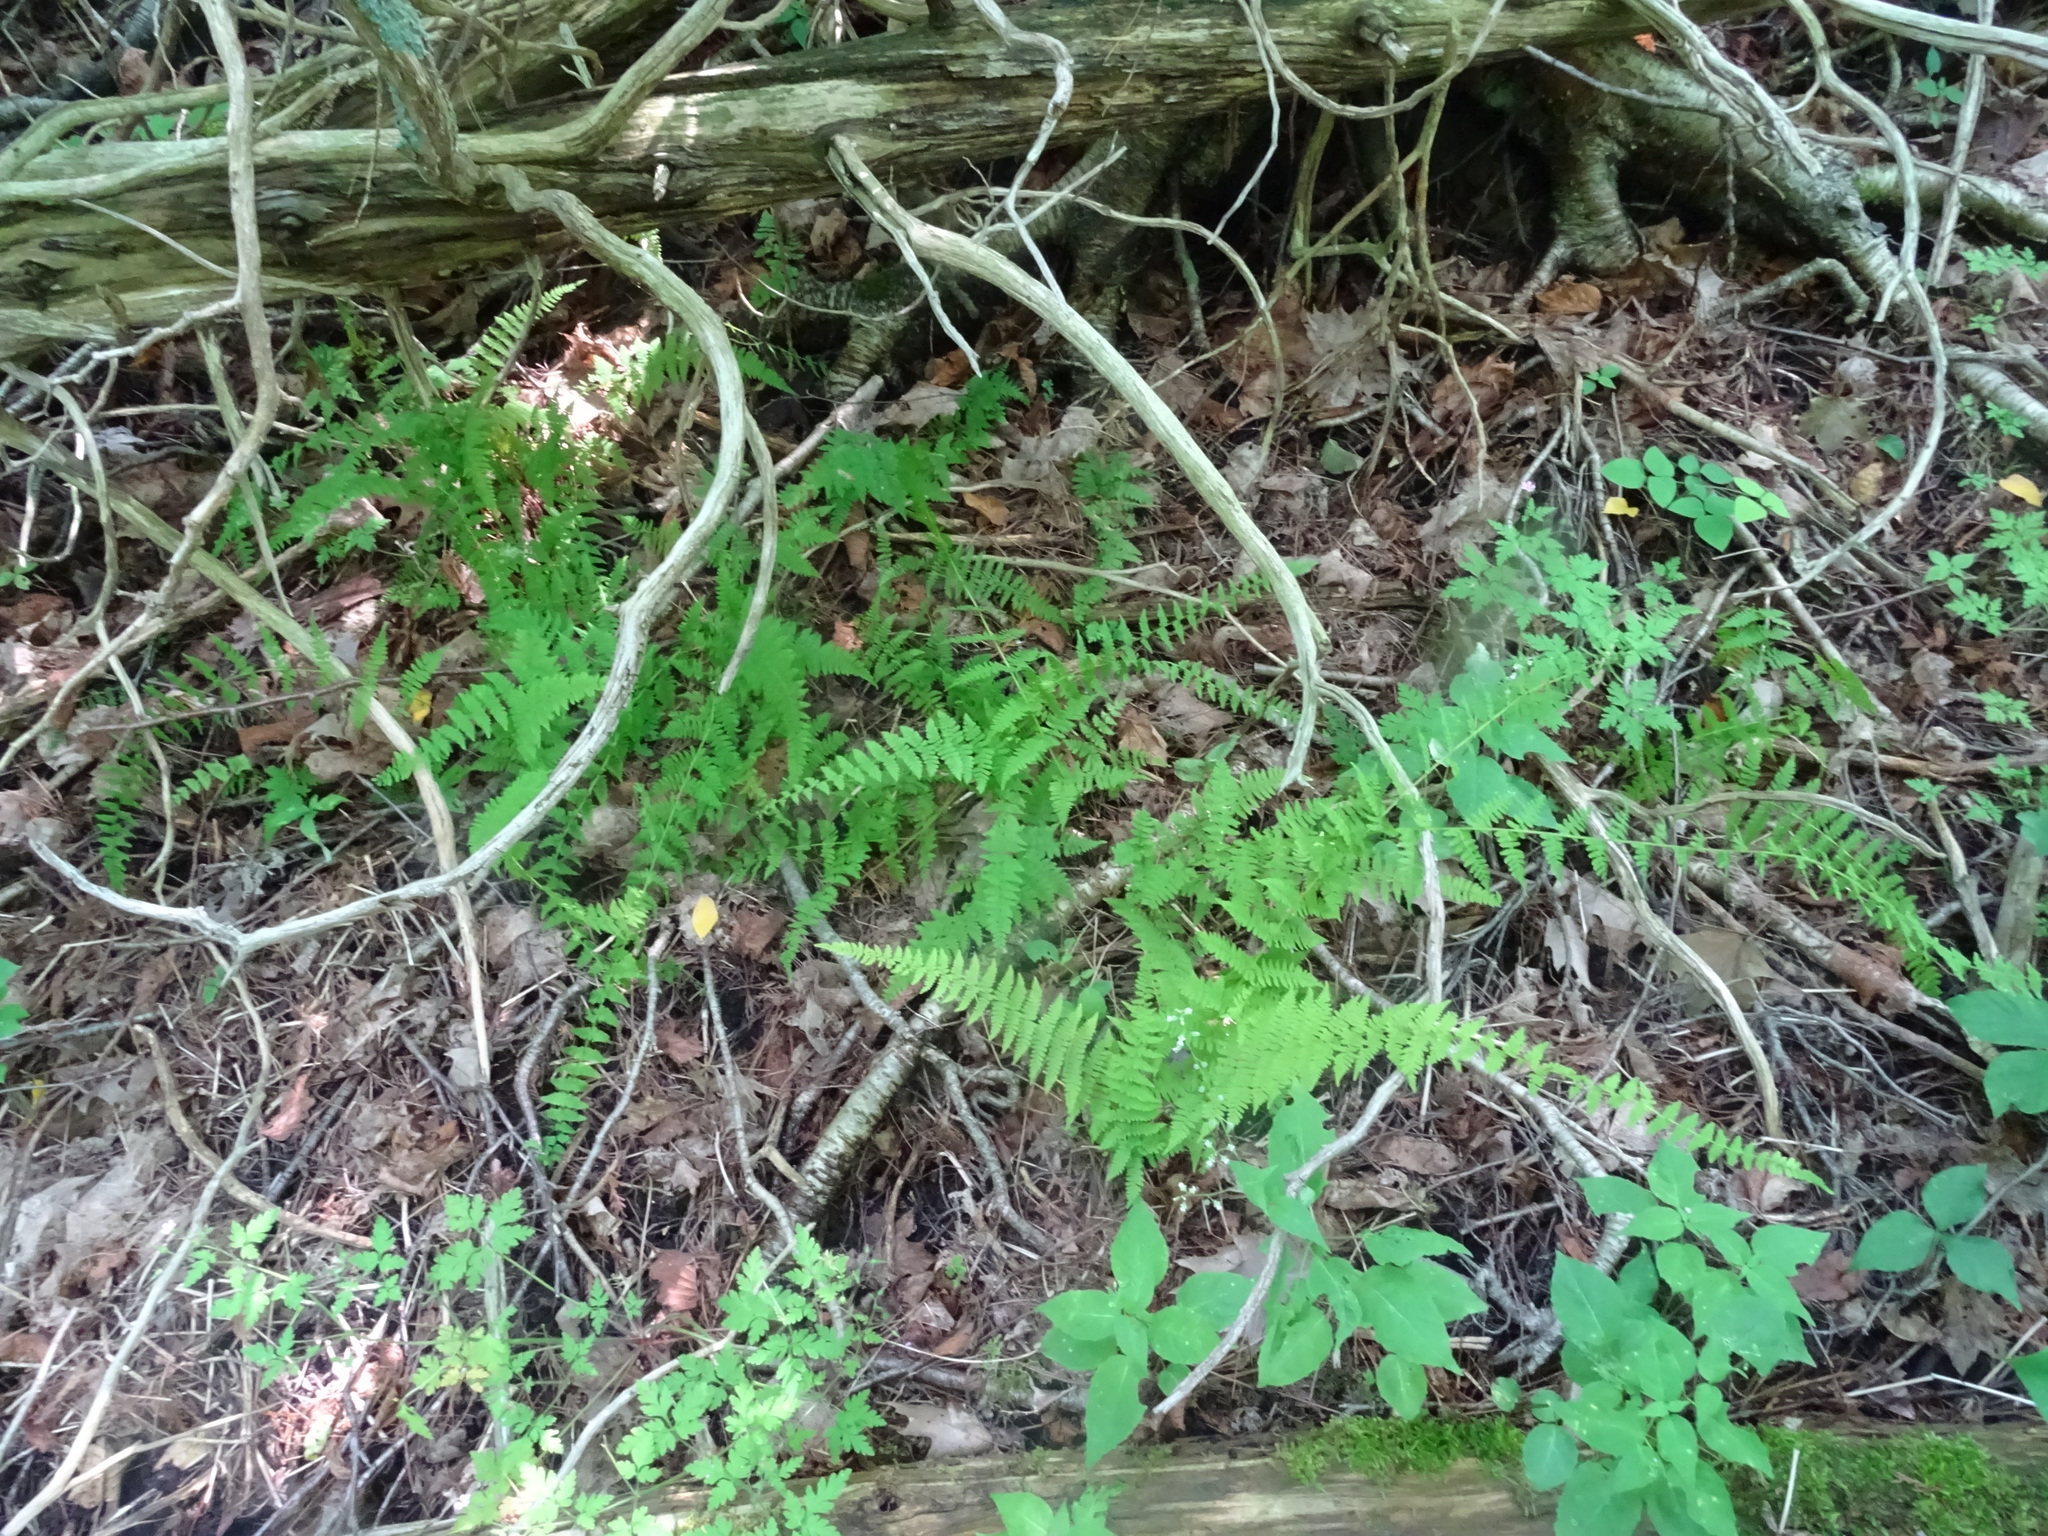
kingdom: Plantae
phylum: Tracheophyta
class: Polypodiopsida
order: Polypodiales
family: Cystopteridaceae
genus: Cystopteris
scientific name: Cystopteris bulbifera
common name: Bulblet bladder fern
